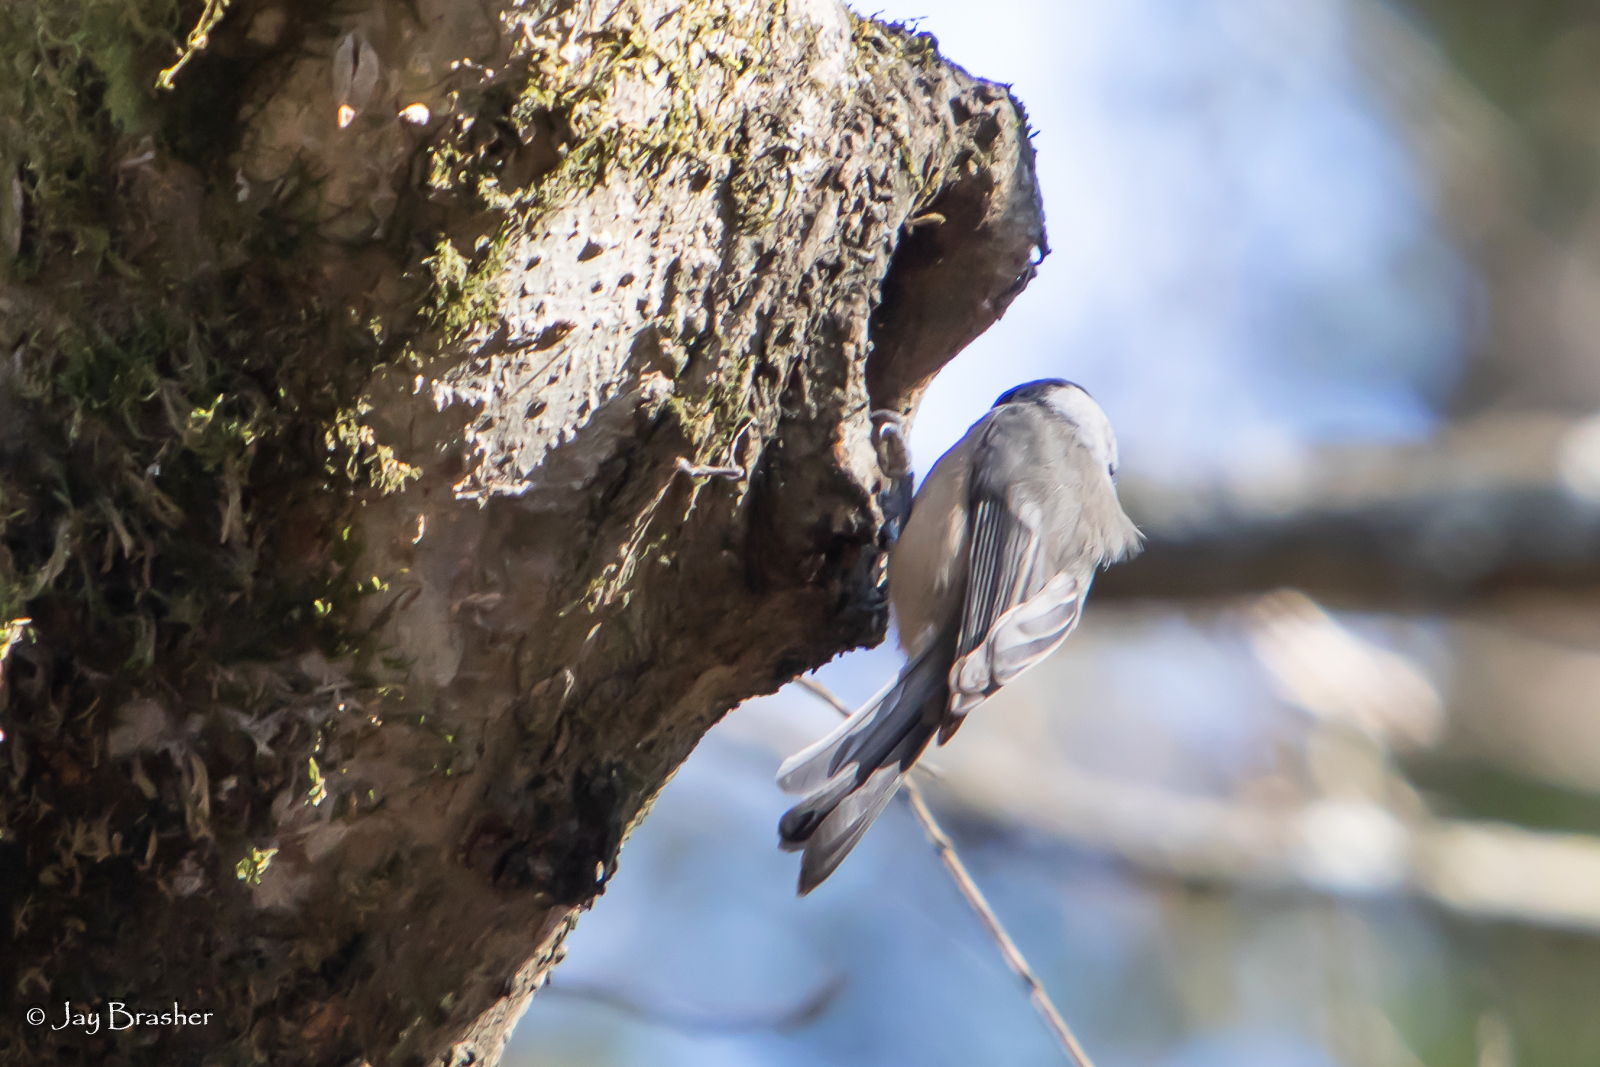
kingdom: Animalia
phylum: Chordata
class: Aves
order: Passeriformes
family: Paridae
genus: Poecile
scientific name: Poecile carolinensis
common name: Carolina chickadee
